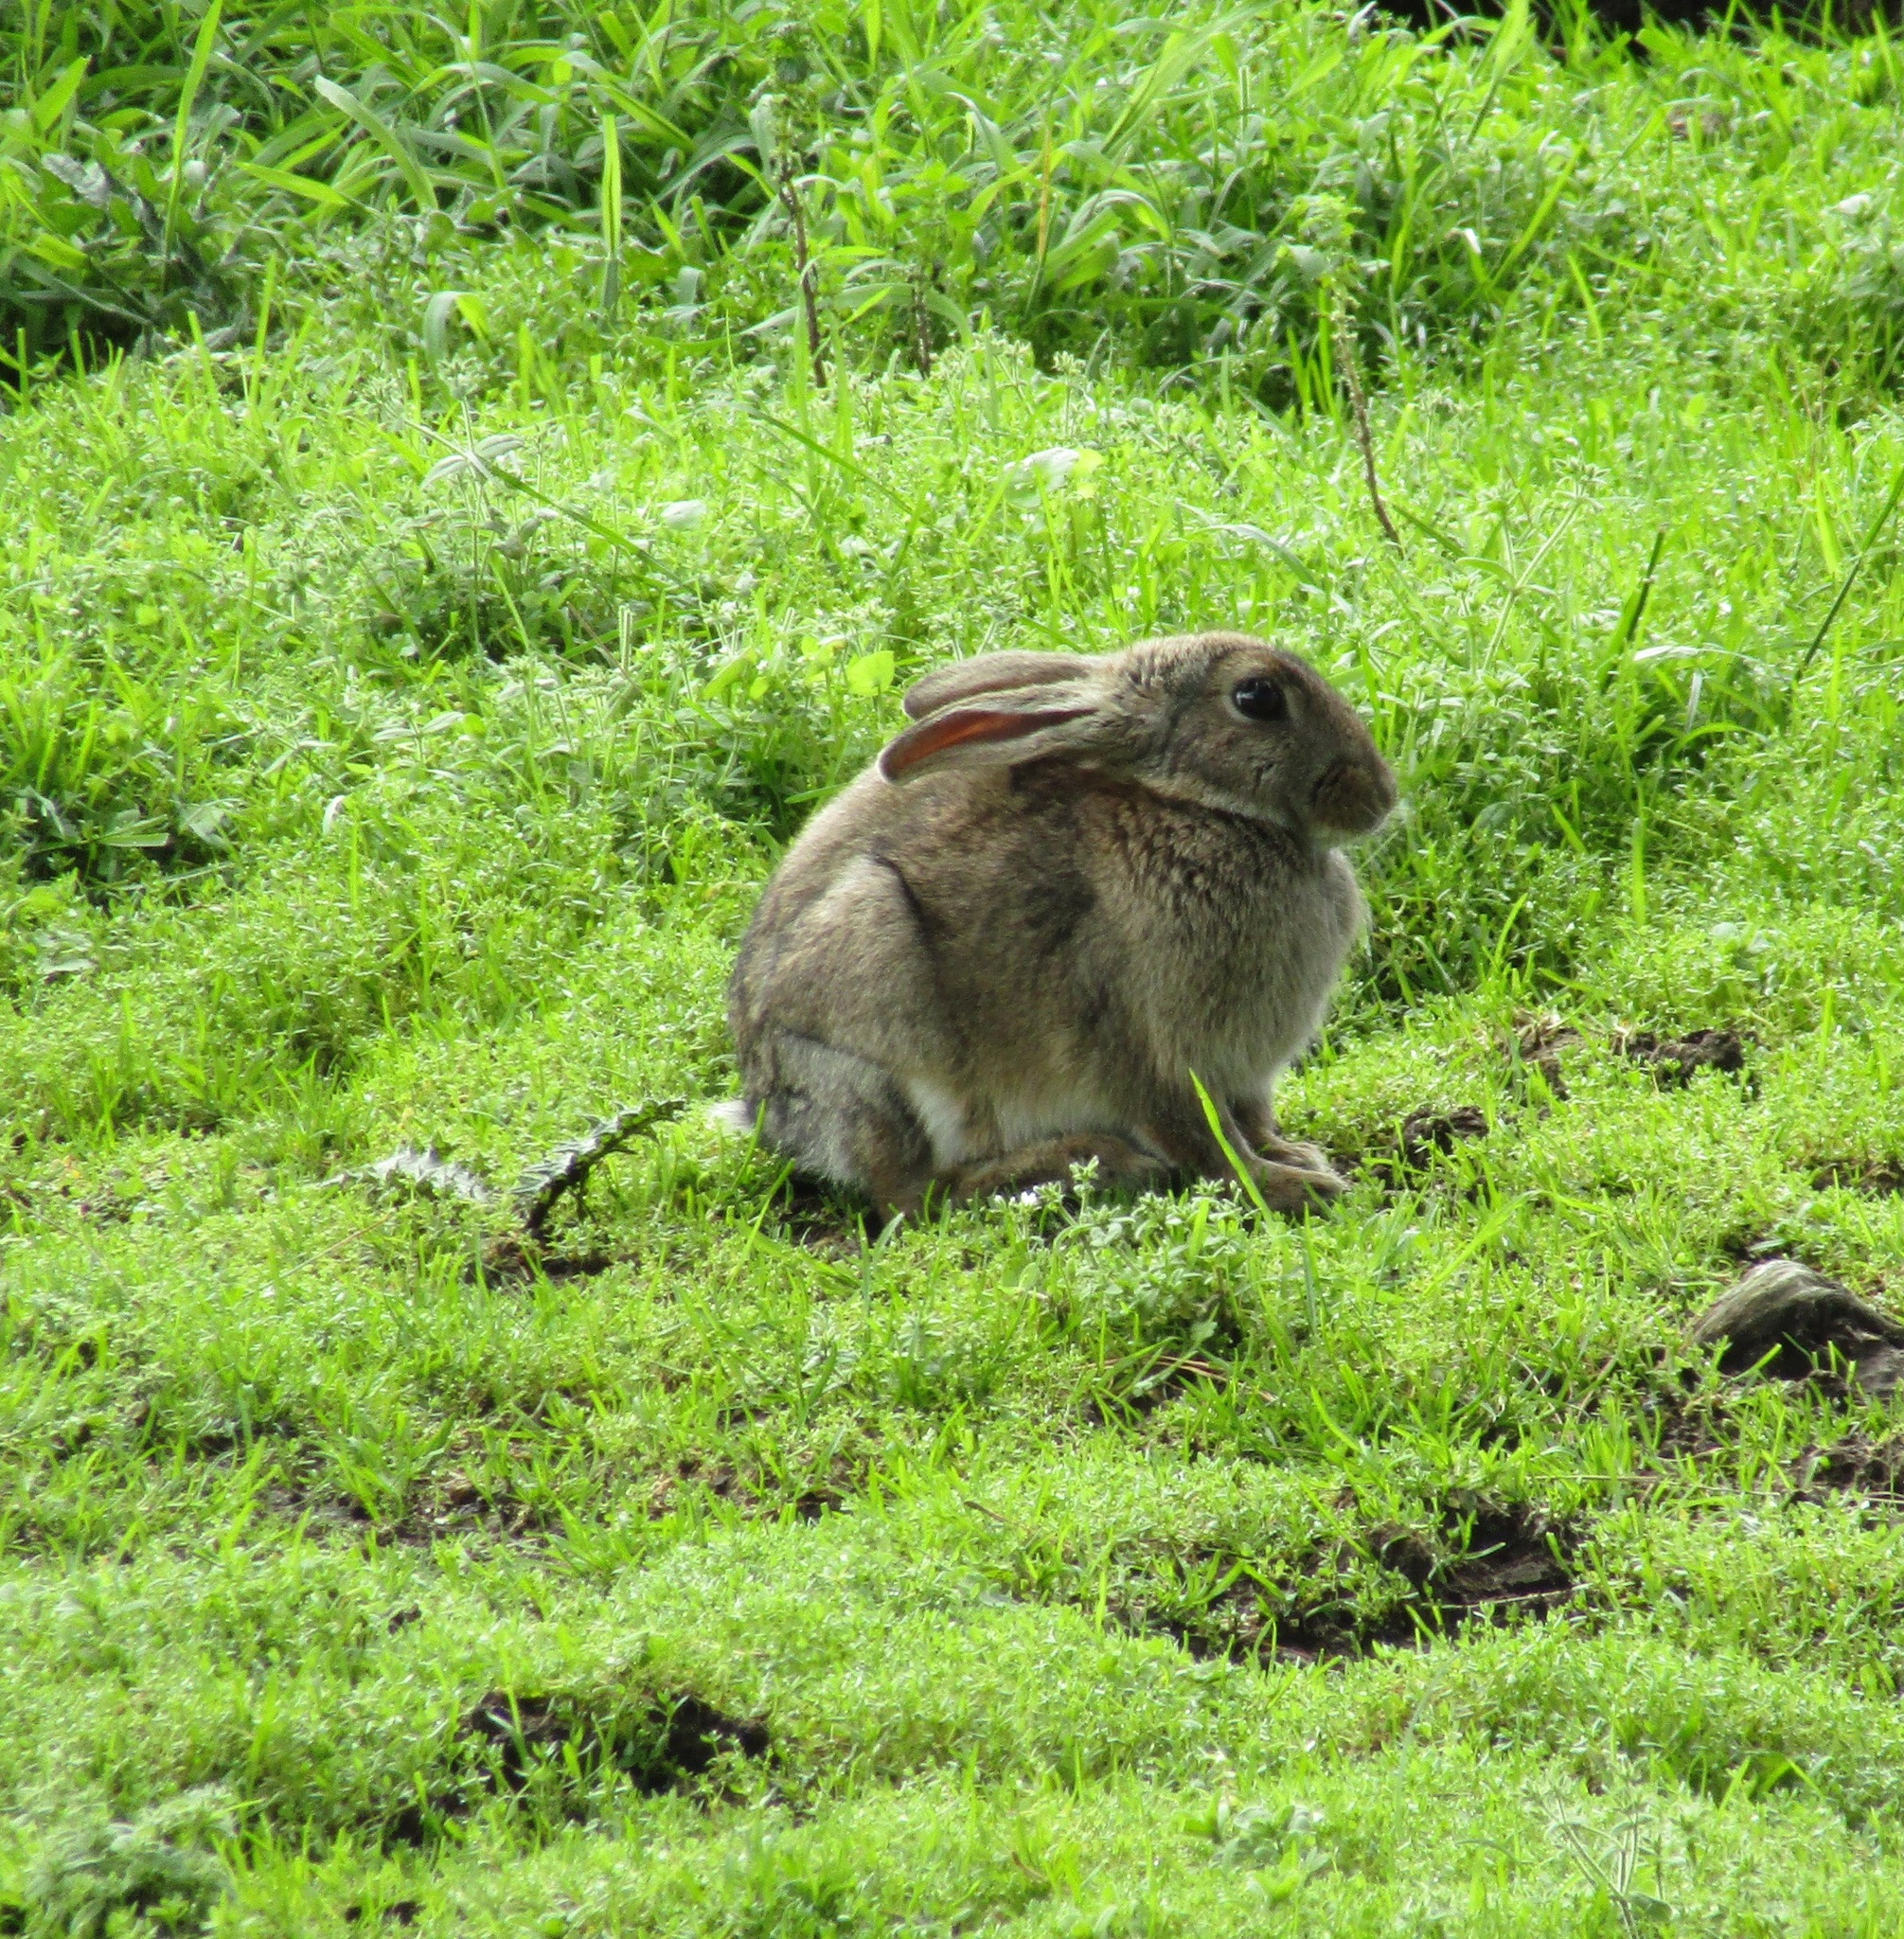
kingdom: Animalia
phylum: Chordata
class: Mammalia
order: Lagomorpha
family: Leporidae
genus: Oryctolagus
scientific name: Oryctolagus cuniculus
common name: European rabbit
